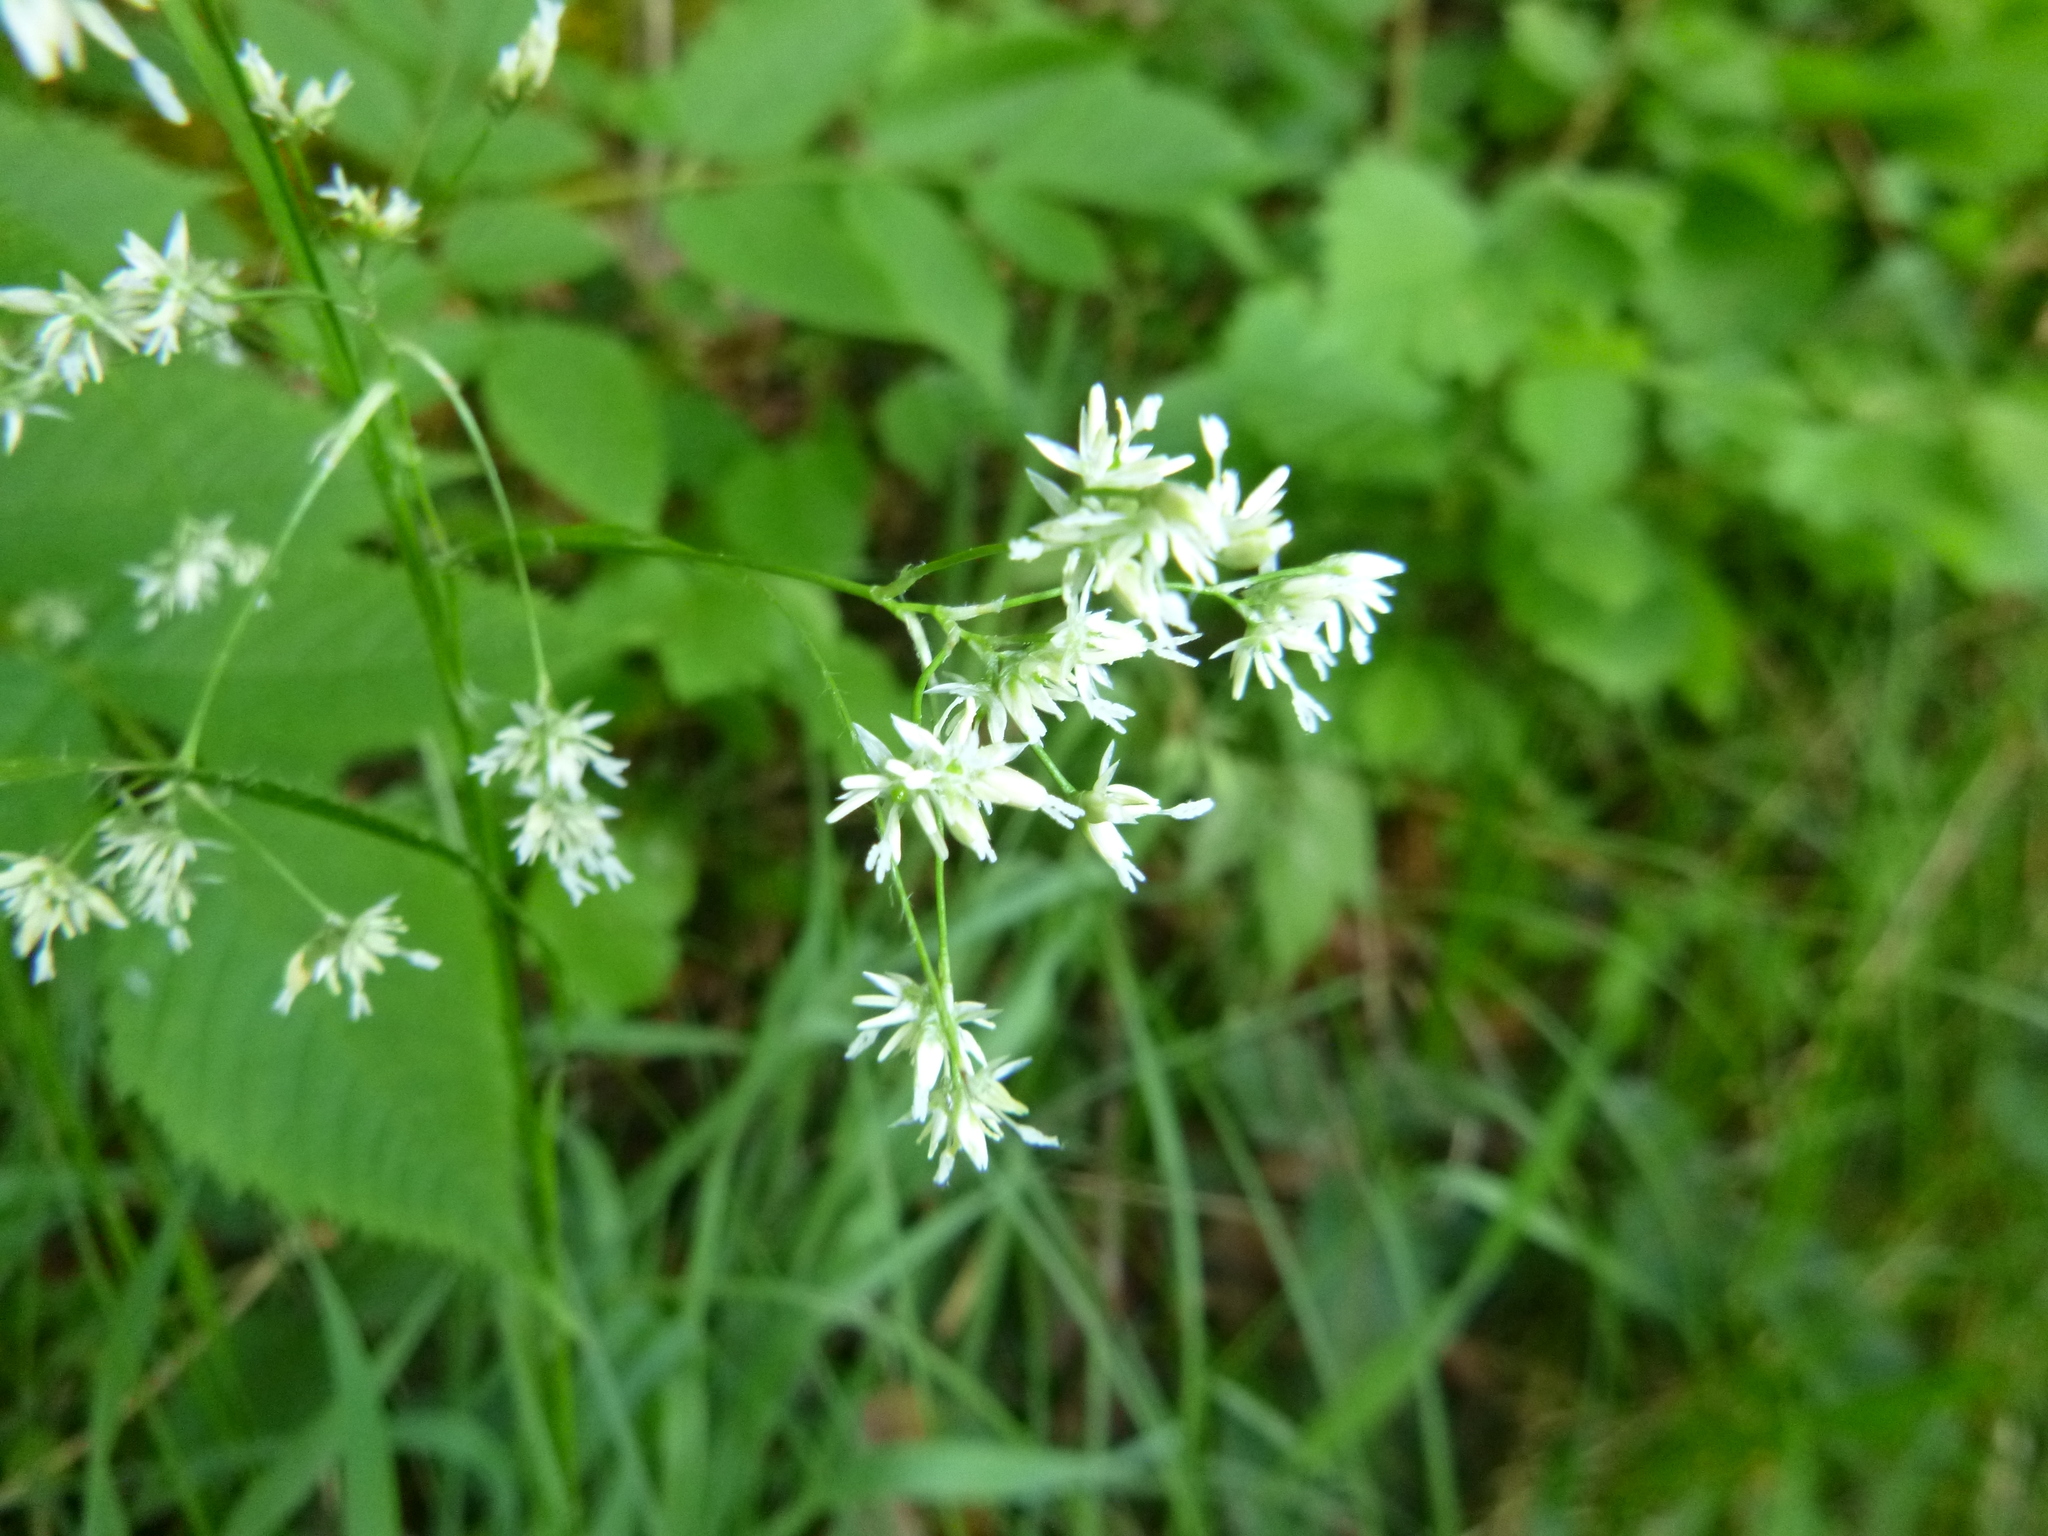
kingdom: Plantae
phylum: Tracheophyta
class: Liliopsida
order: Poales
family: Juncaceae
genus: Luzula
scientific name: Luzula luzuloides
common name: White wood-rush
